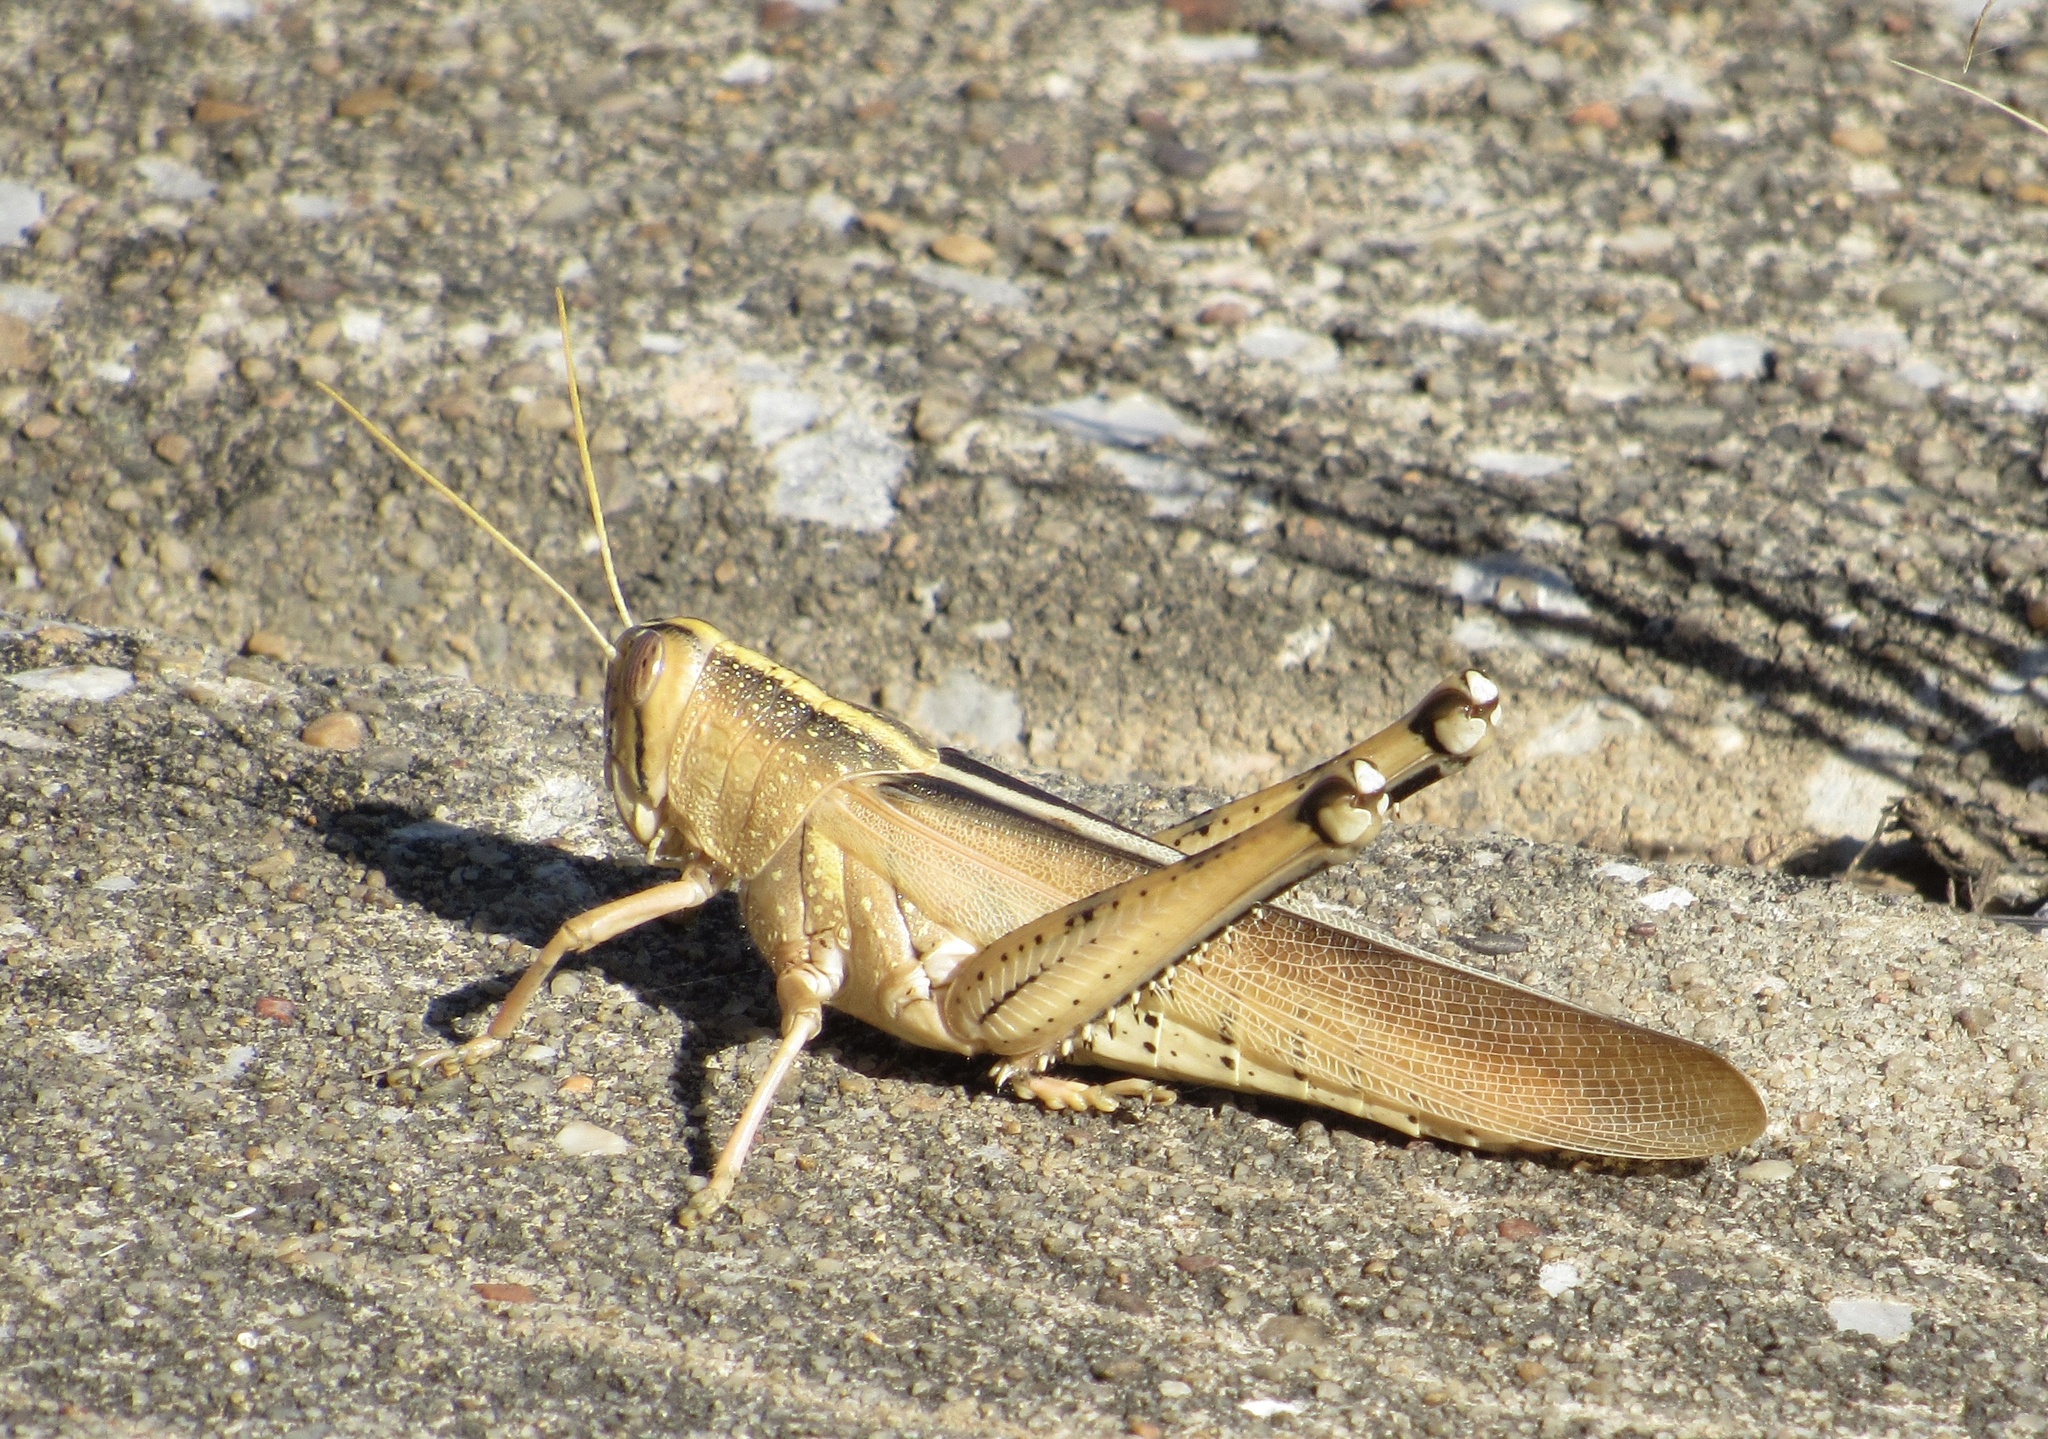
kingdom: Animalia
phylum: Arthropoda
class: Insecta
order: Orthoptera
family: Acrididae
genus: Schistocerca
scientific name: Schistocerca lineata
